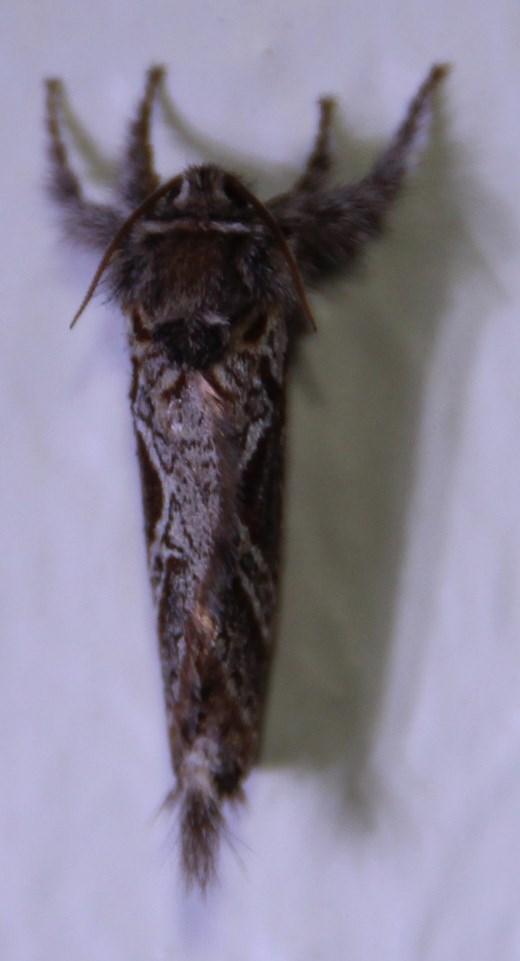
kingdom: Animalia
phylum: Arthropoda
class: Insecta
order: Lepidoptera
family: Hepialidae
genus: Eudalaca
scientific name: Eudalaca orthocosma
